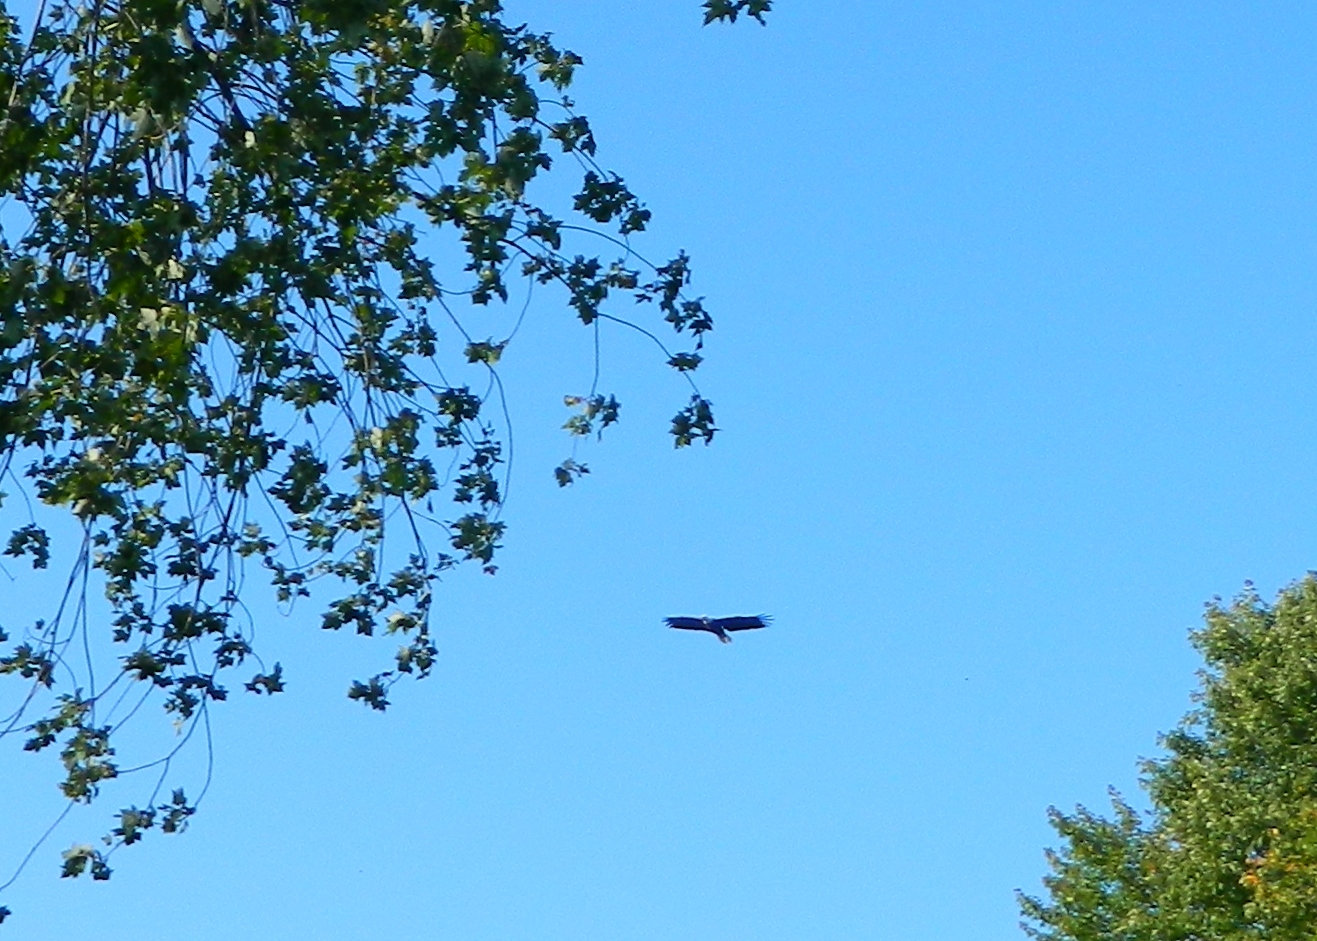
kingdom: Animalia
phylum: Chordata
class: Aves
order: Accipitriformes
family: Accipitridae
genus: Haliaeetus
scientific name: Haliaeetus leucocephalus
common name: Bald eagle
